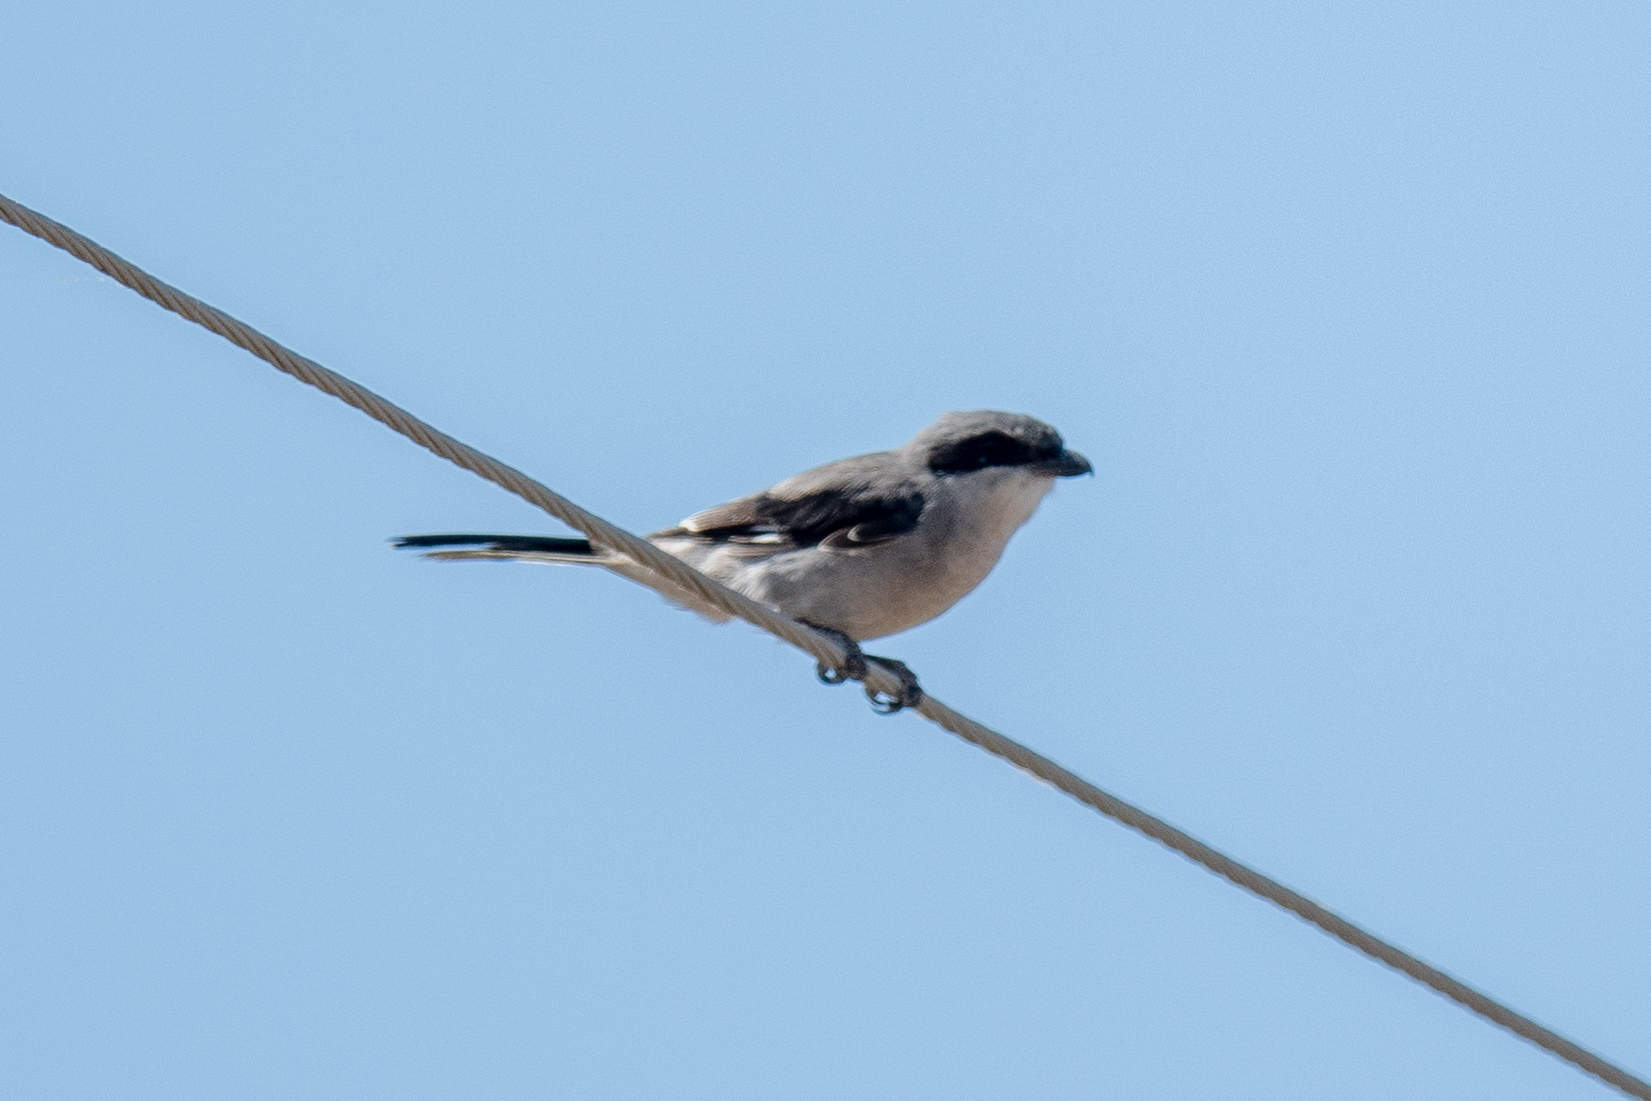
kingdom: Animalia
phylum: Chordata
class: Aves
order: Passeriformes
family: Laniidae
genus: Lanius
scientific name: Lanius ludovicianus
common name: Loggerhead shrike
